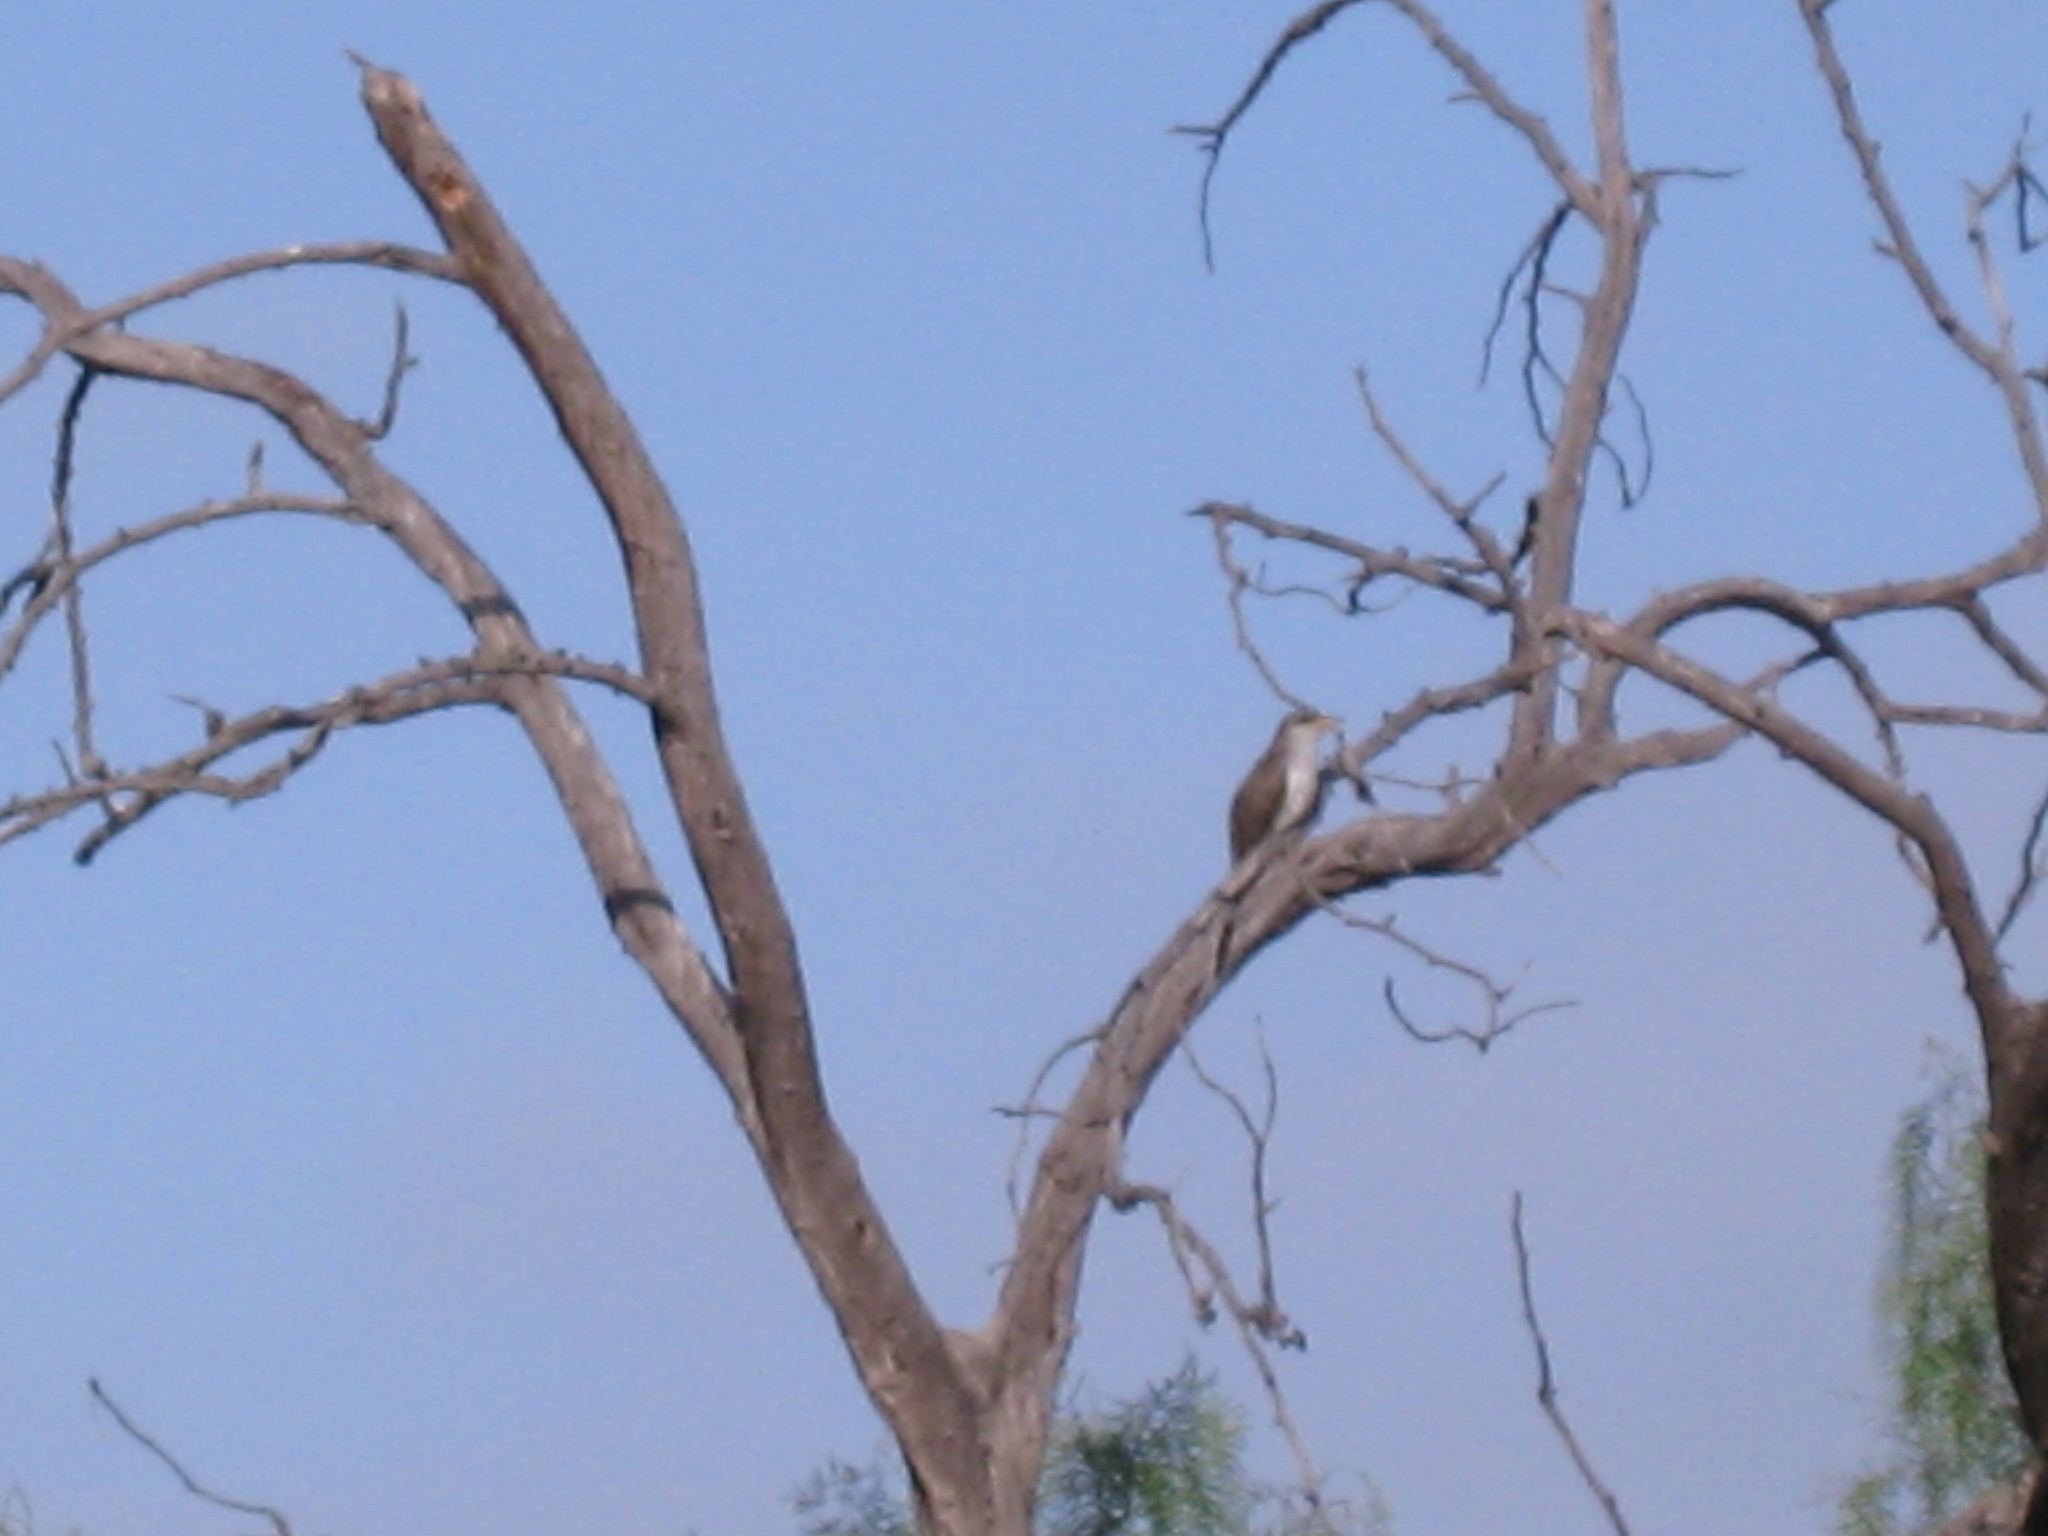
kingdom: Animalia
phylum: Chordata
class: Aves
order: Cuculiformes
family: Cuculidae
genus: Coccyzus
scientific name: Coccyzus americanus
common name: Yellow-billed cuckoo
